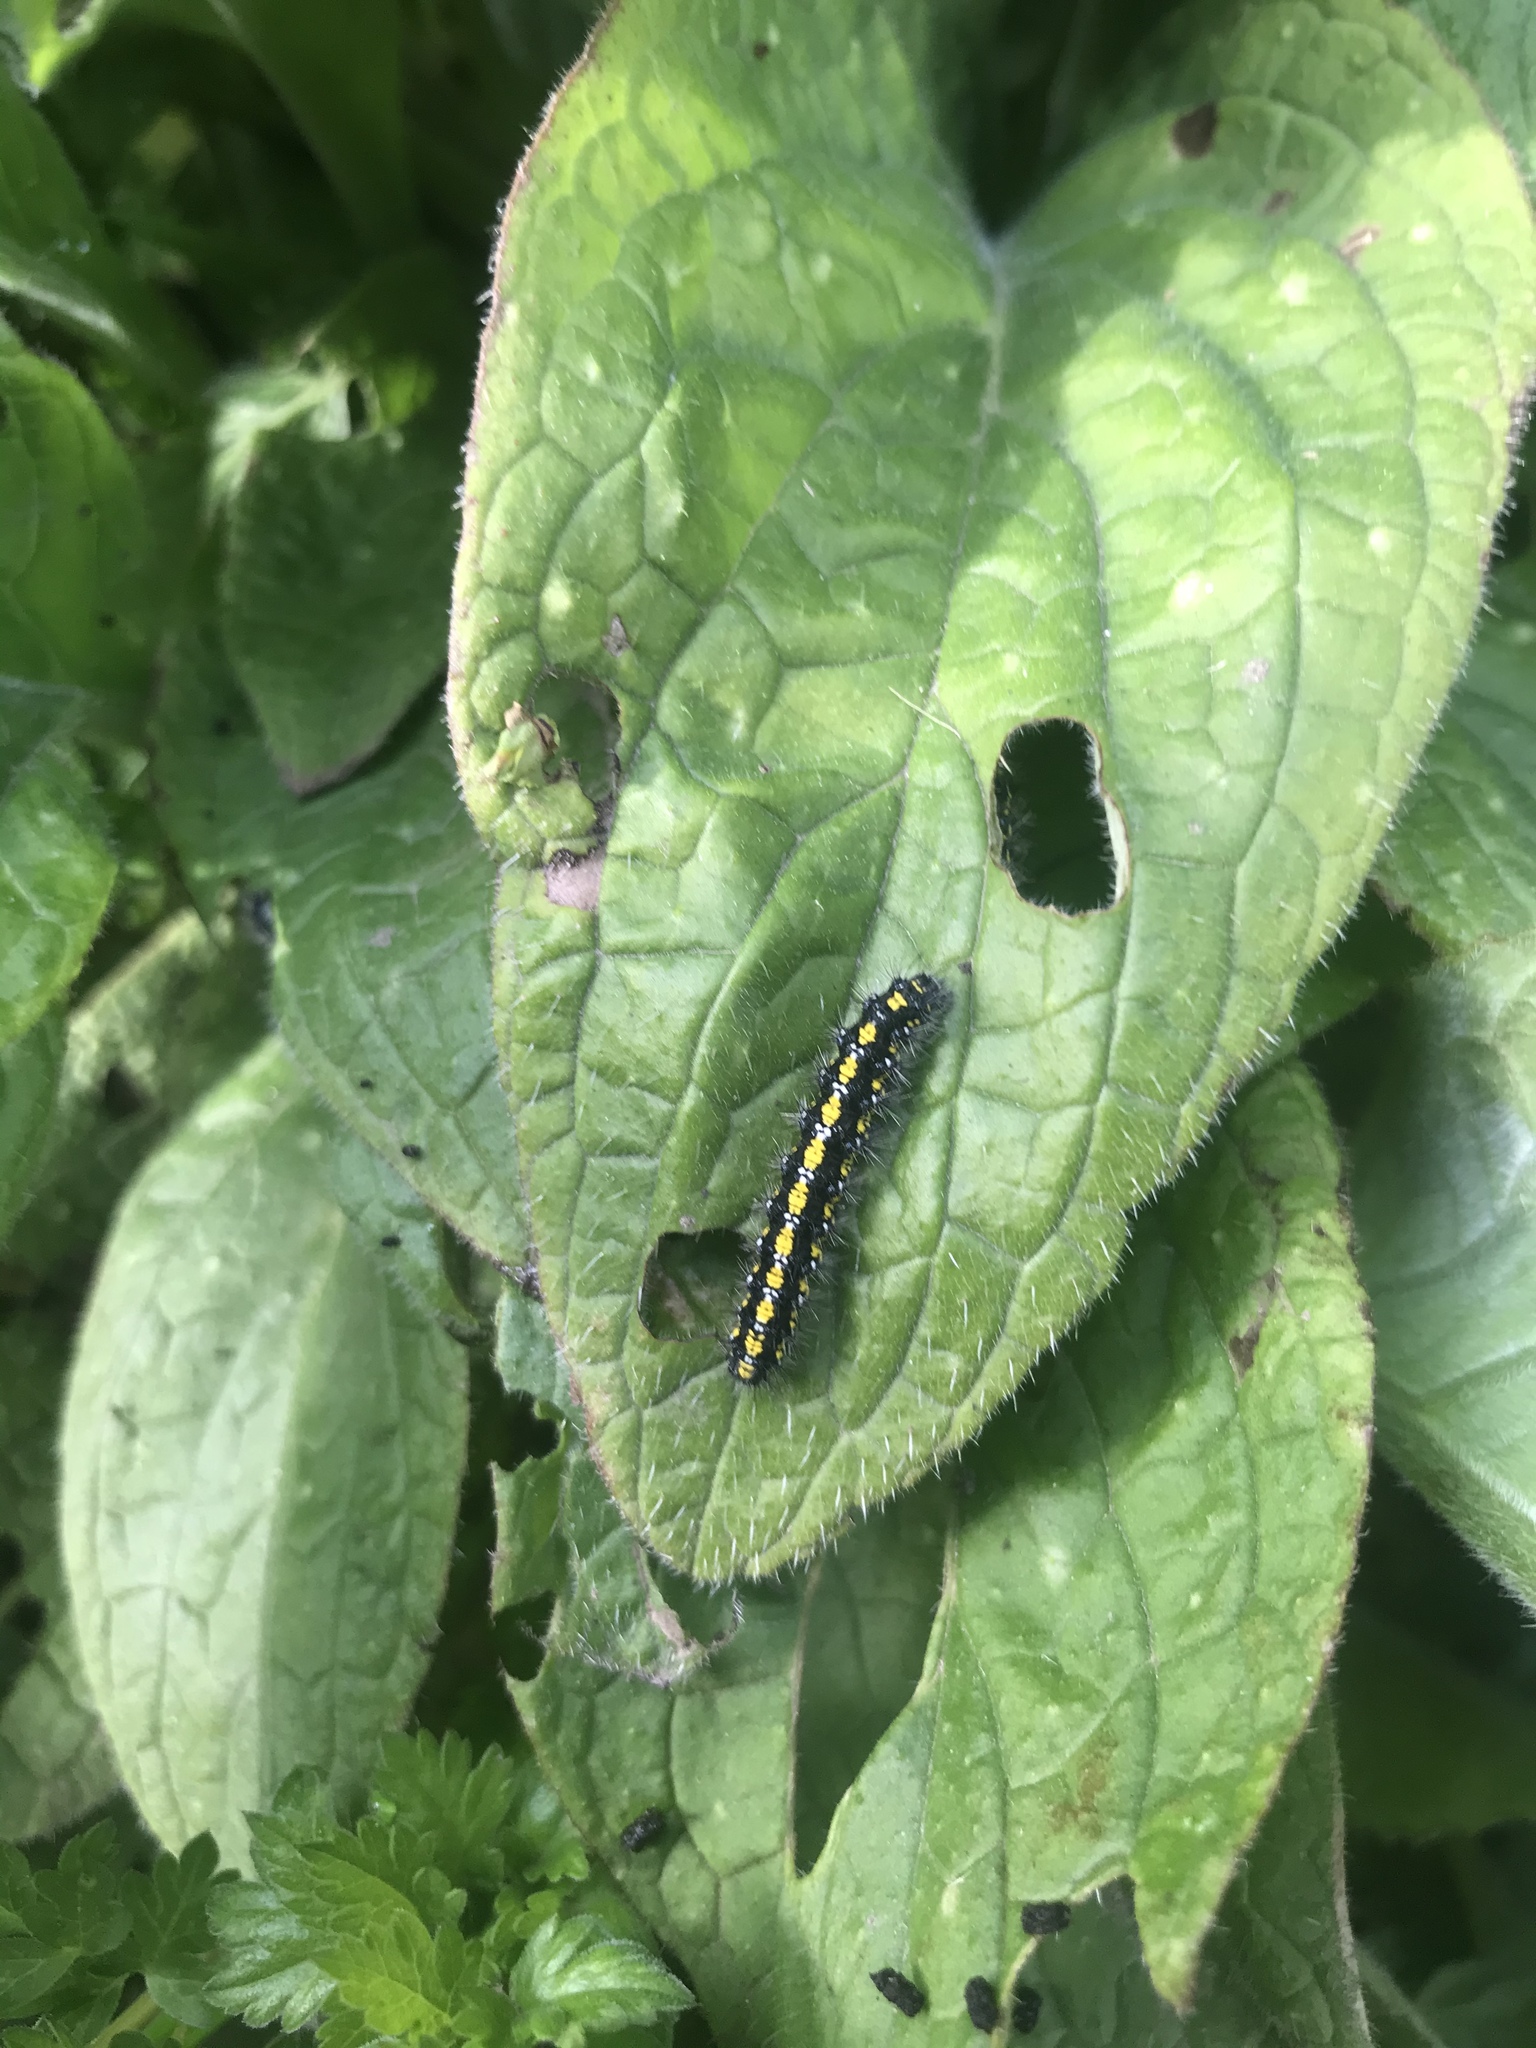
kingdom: Animalia
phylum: Arthropoda
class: Insecta
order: Lepidoptera
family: Erebidae
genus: Callimorpha
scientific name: Callimorpha dominula
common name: Scarlet tiger
